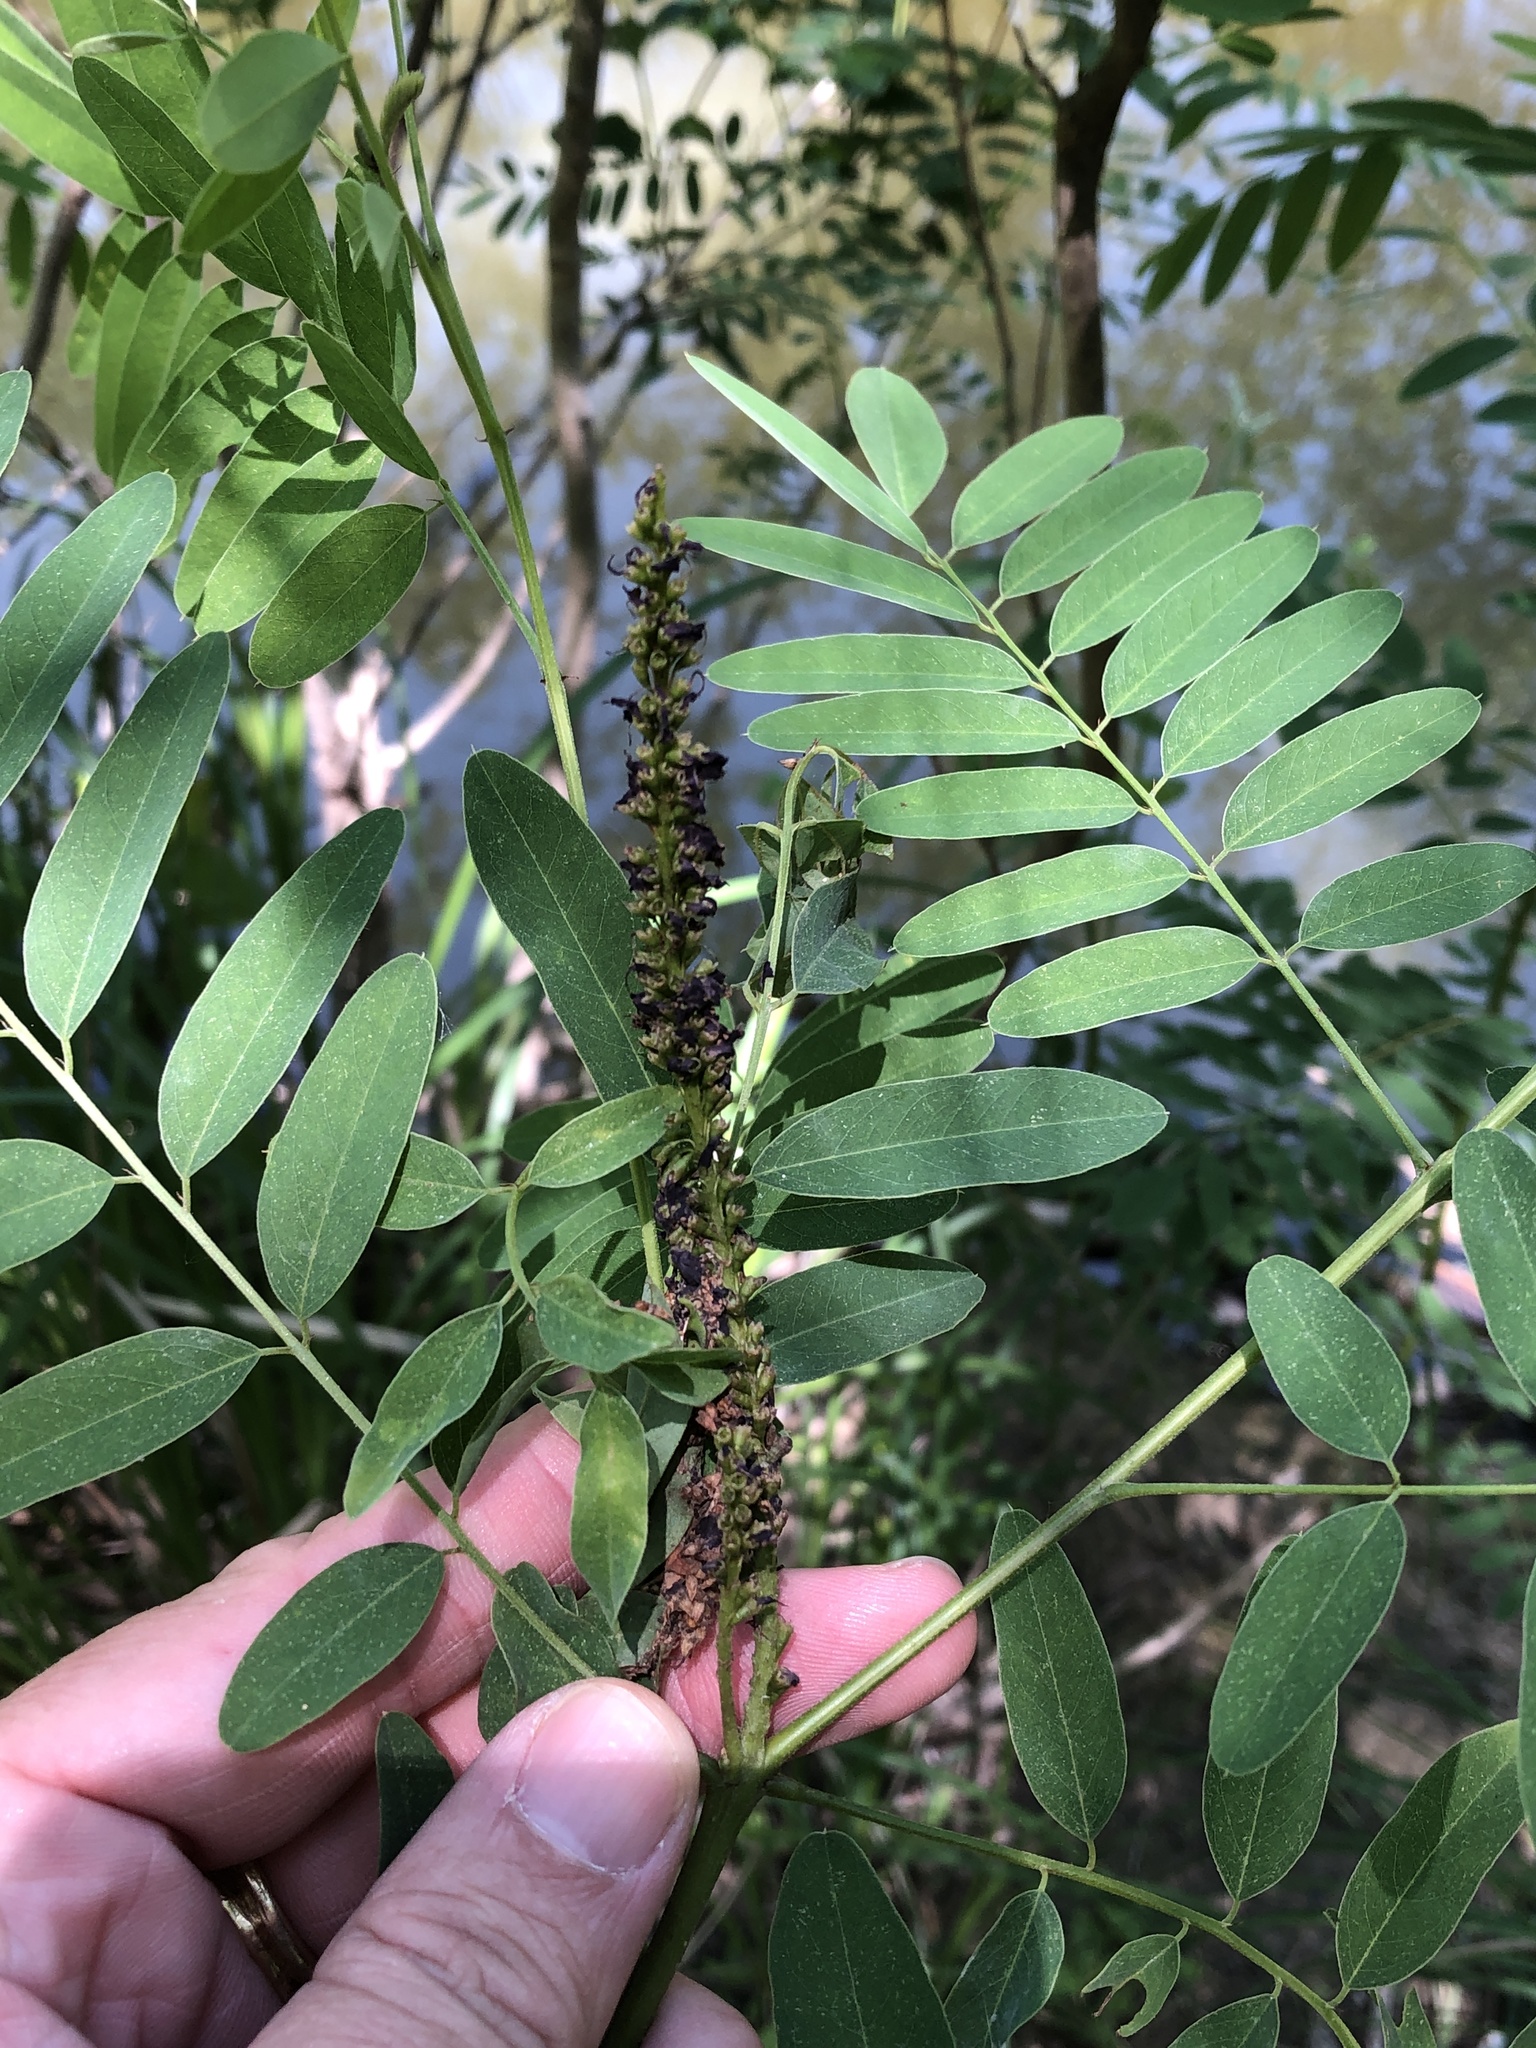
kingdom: Plantae
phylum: Tracheophyta
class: Magnoliopsida
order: Fabales
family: Fabaceae
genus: Amorpha
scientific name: Amorpha fruticosa
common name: False indigo
